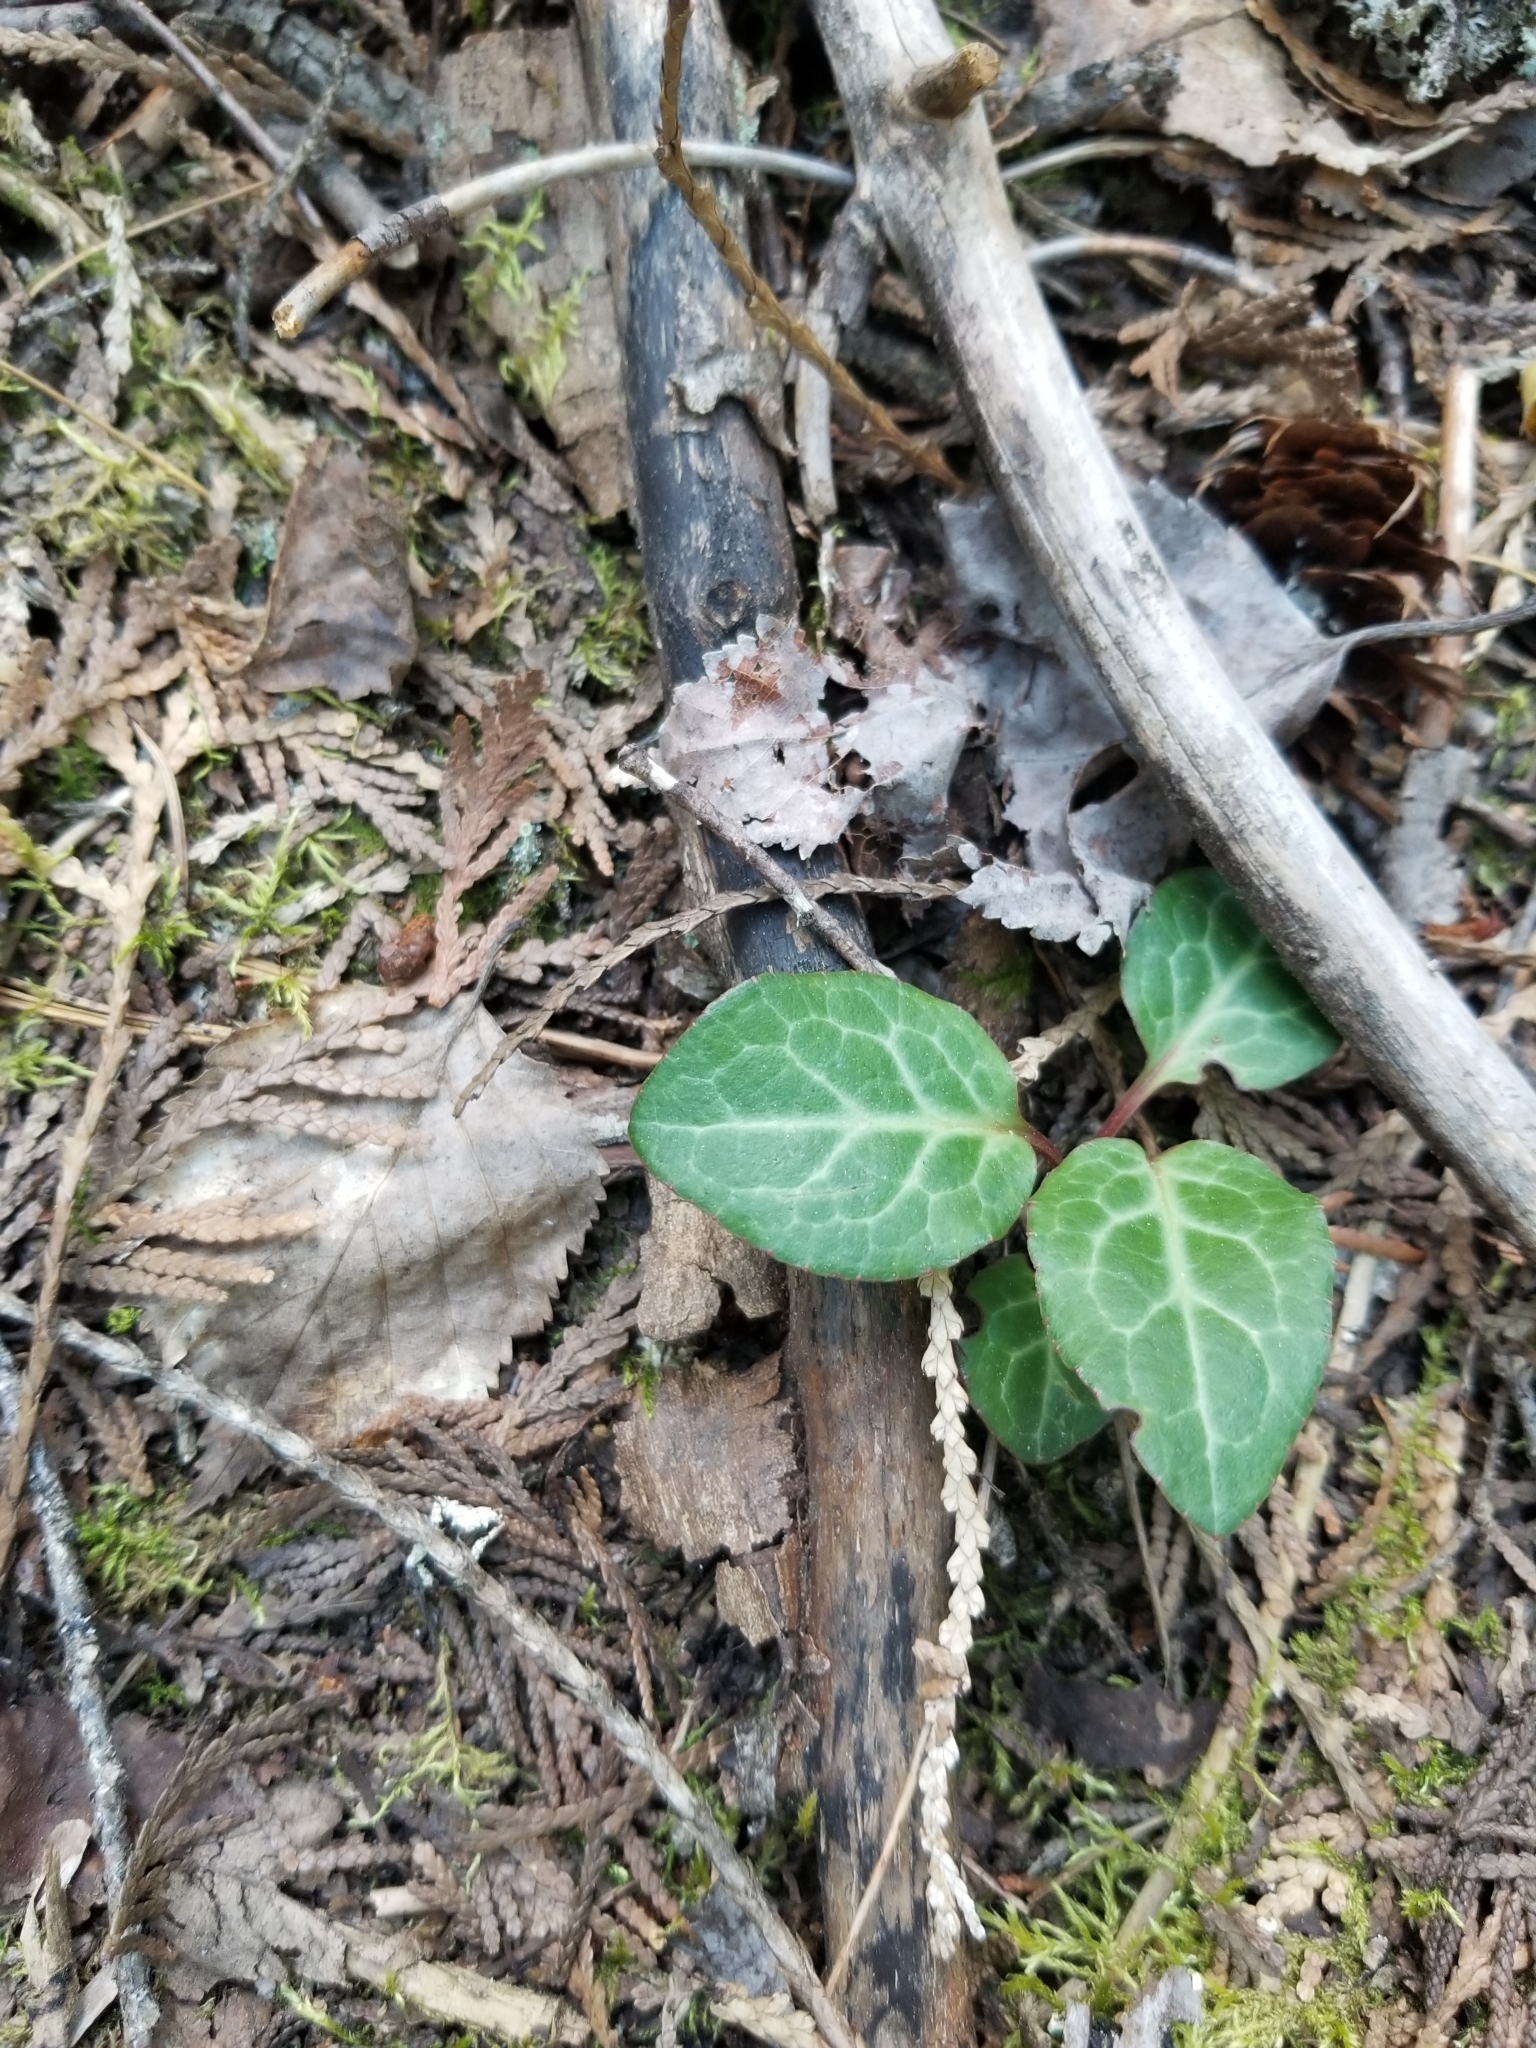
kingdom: Plantae
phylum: Tracheophyta
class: Magnoliopsida
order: Ericales
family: Ericaceae
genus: Pyrola
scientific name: Pyrola picta
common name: White-vein wintergreen
